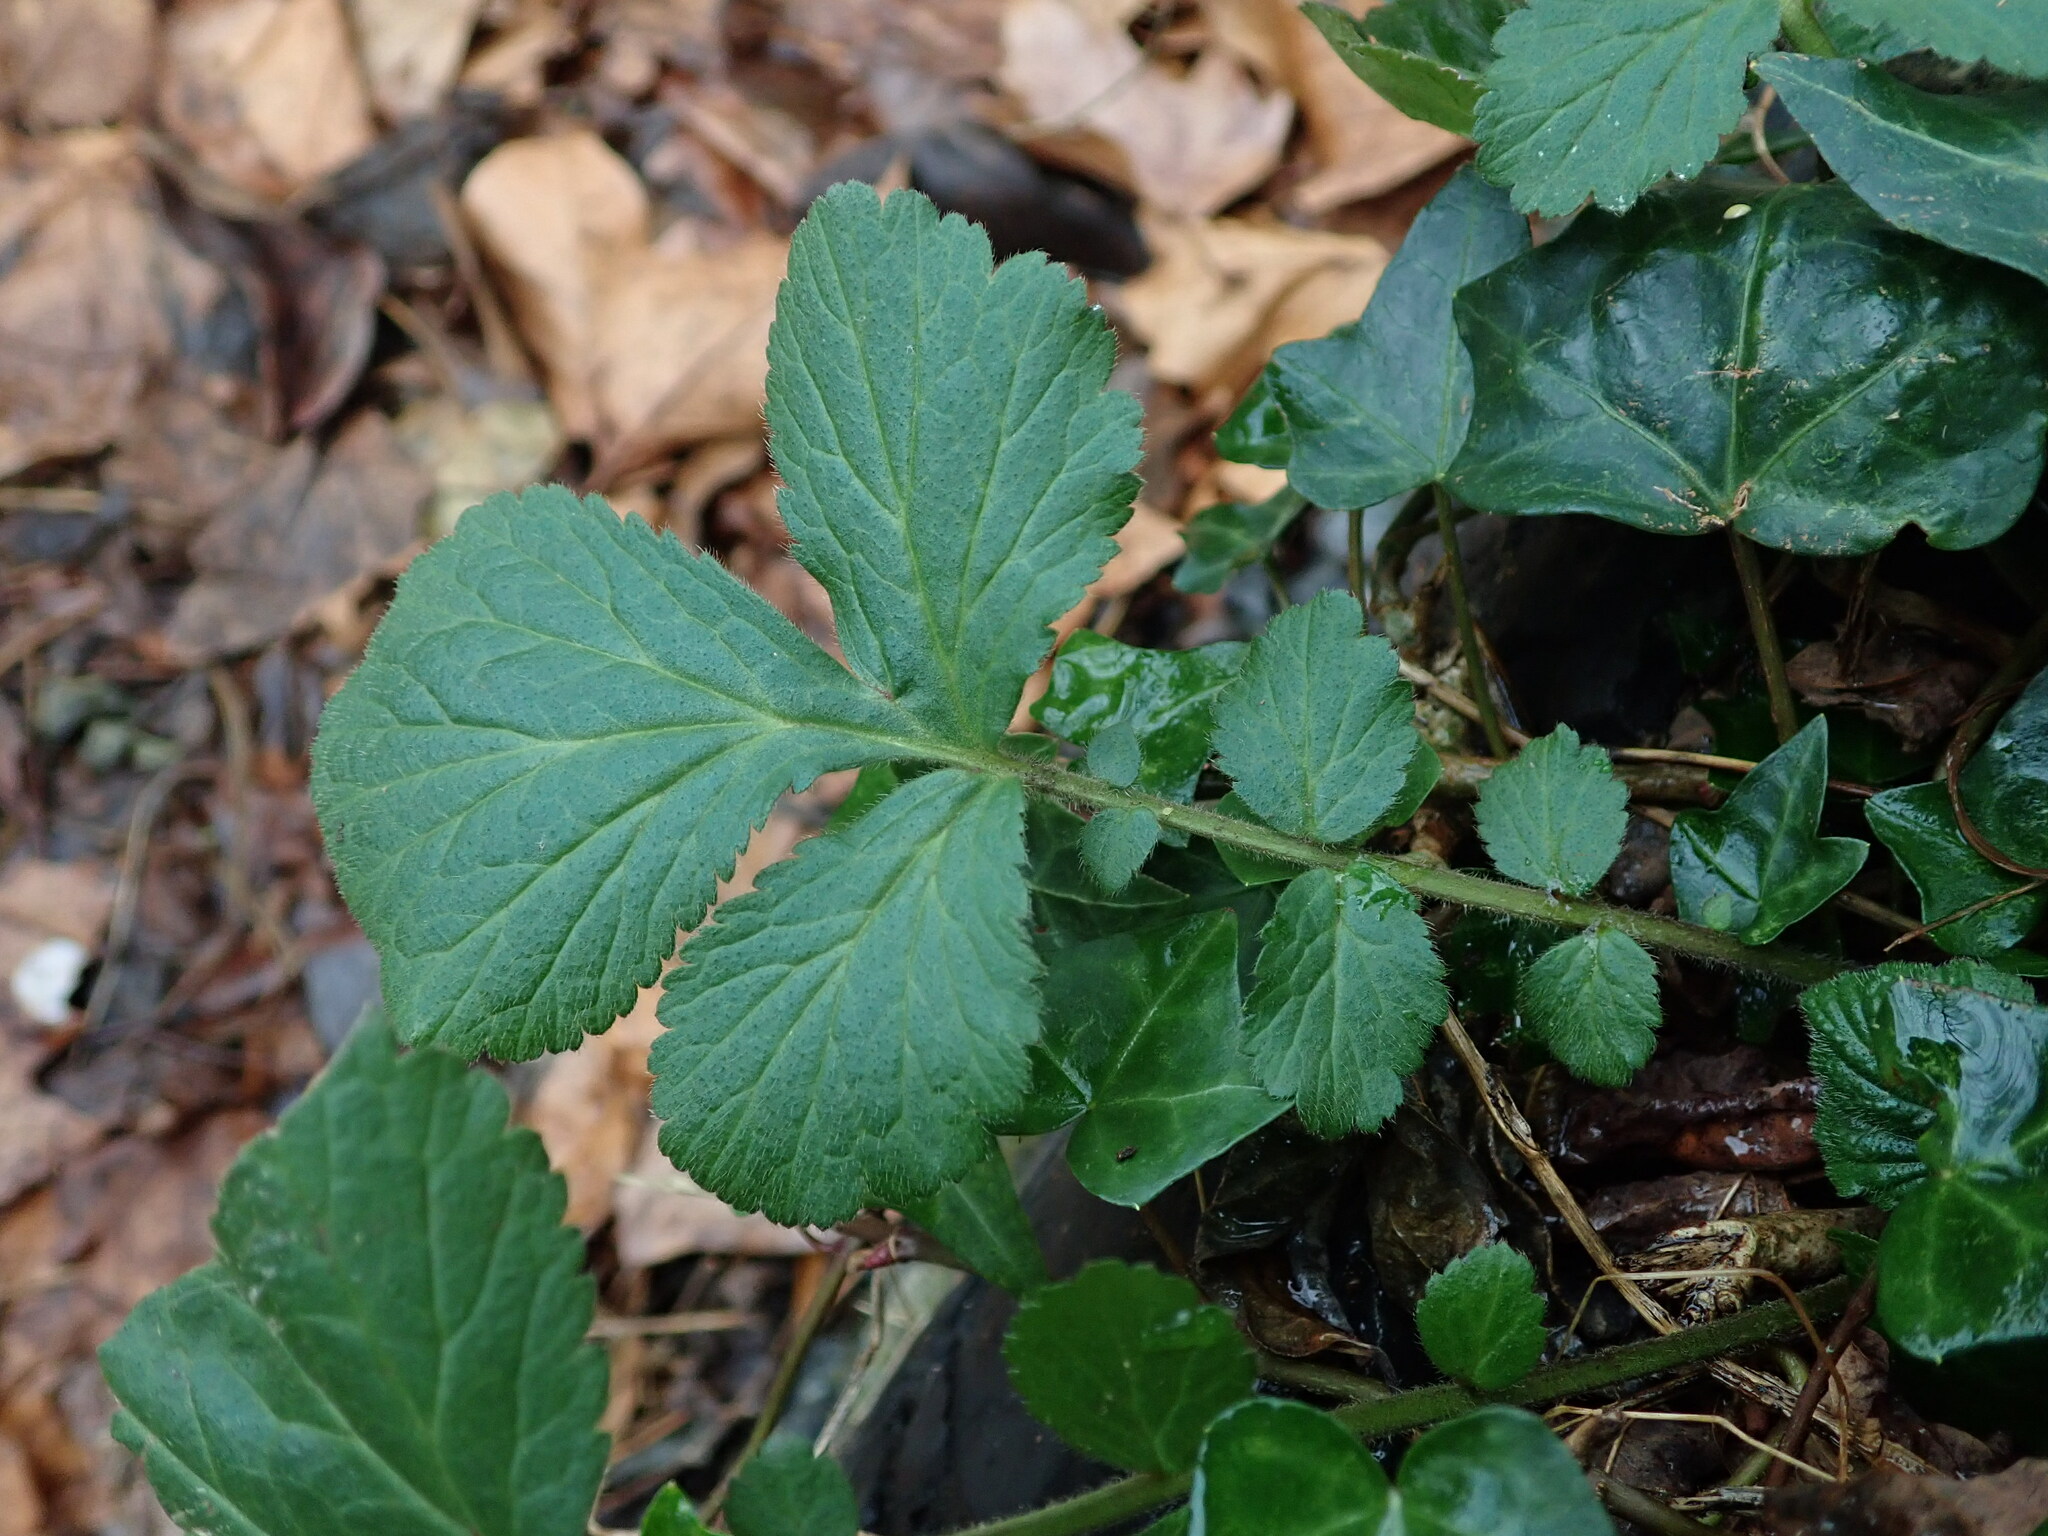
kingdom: Plantae
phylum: Tracheophyta
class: Magnoliopsida
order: Rosales
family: Rosaceae
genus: Geum
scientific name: Geum urbanum
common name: Wood avens
